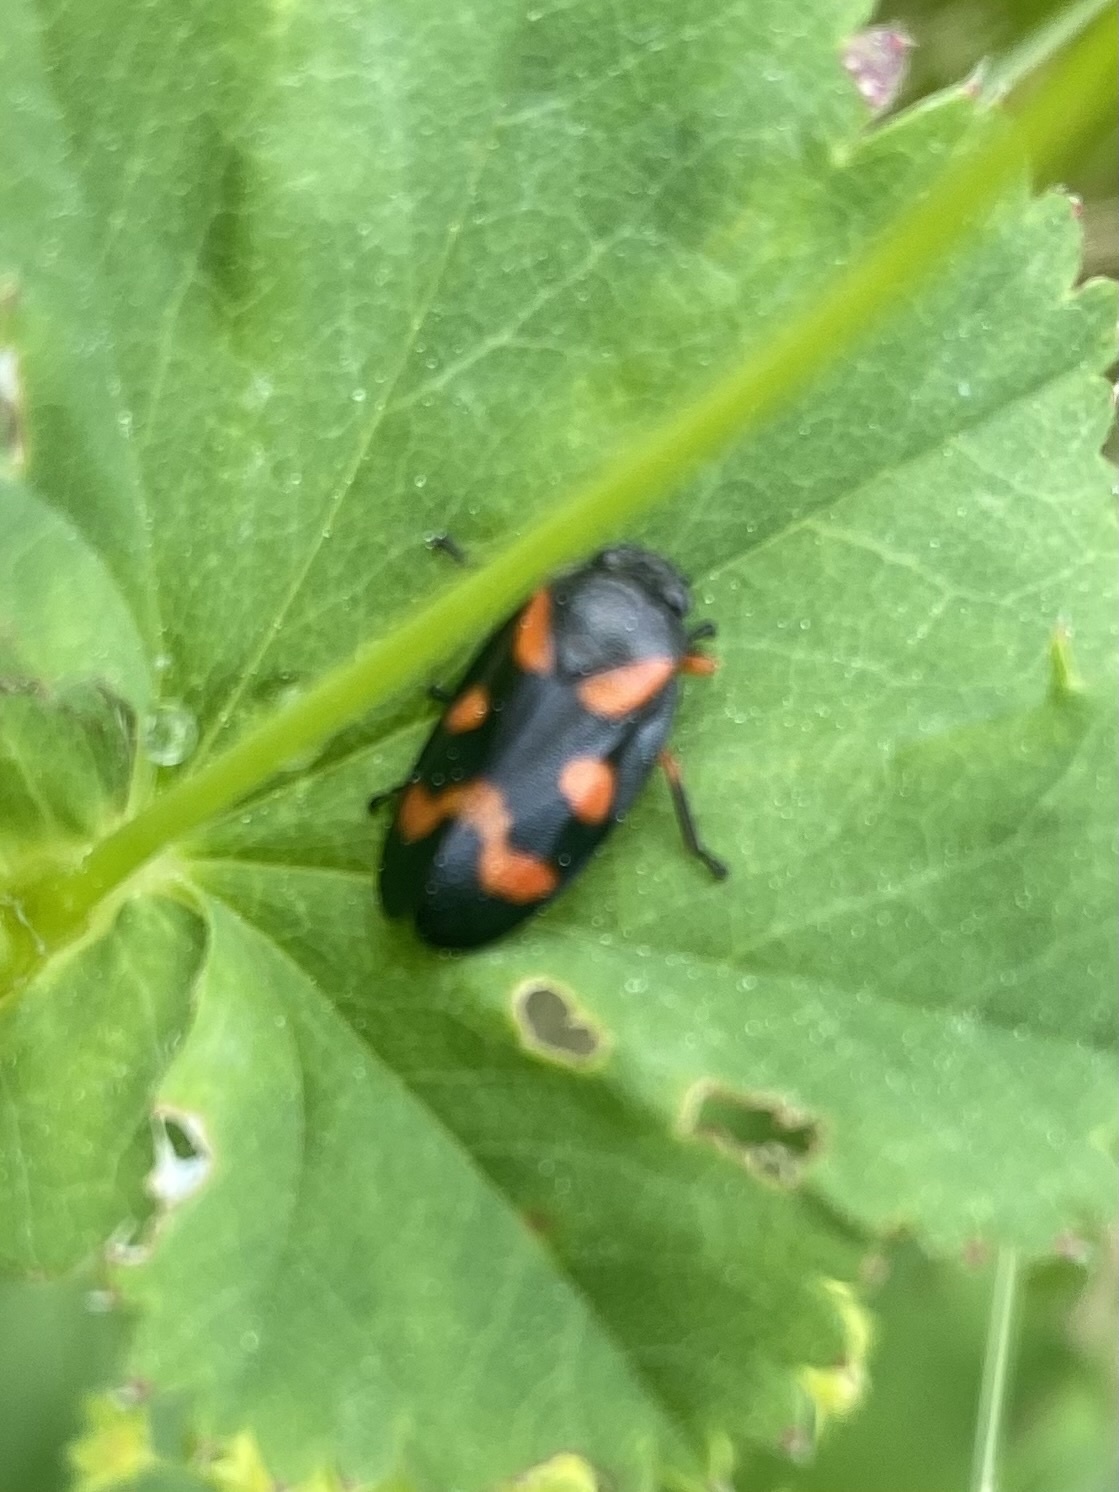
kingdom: Animalia
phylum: Arthropoda
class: Insecta
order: Hemiptera
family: Cercopidae
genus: Cercopis
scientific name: Cercopis intermedia
